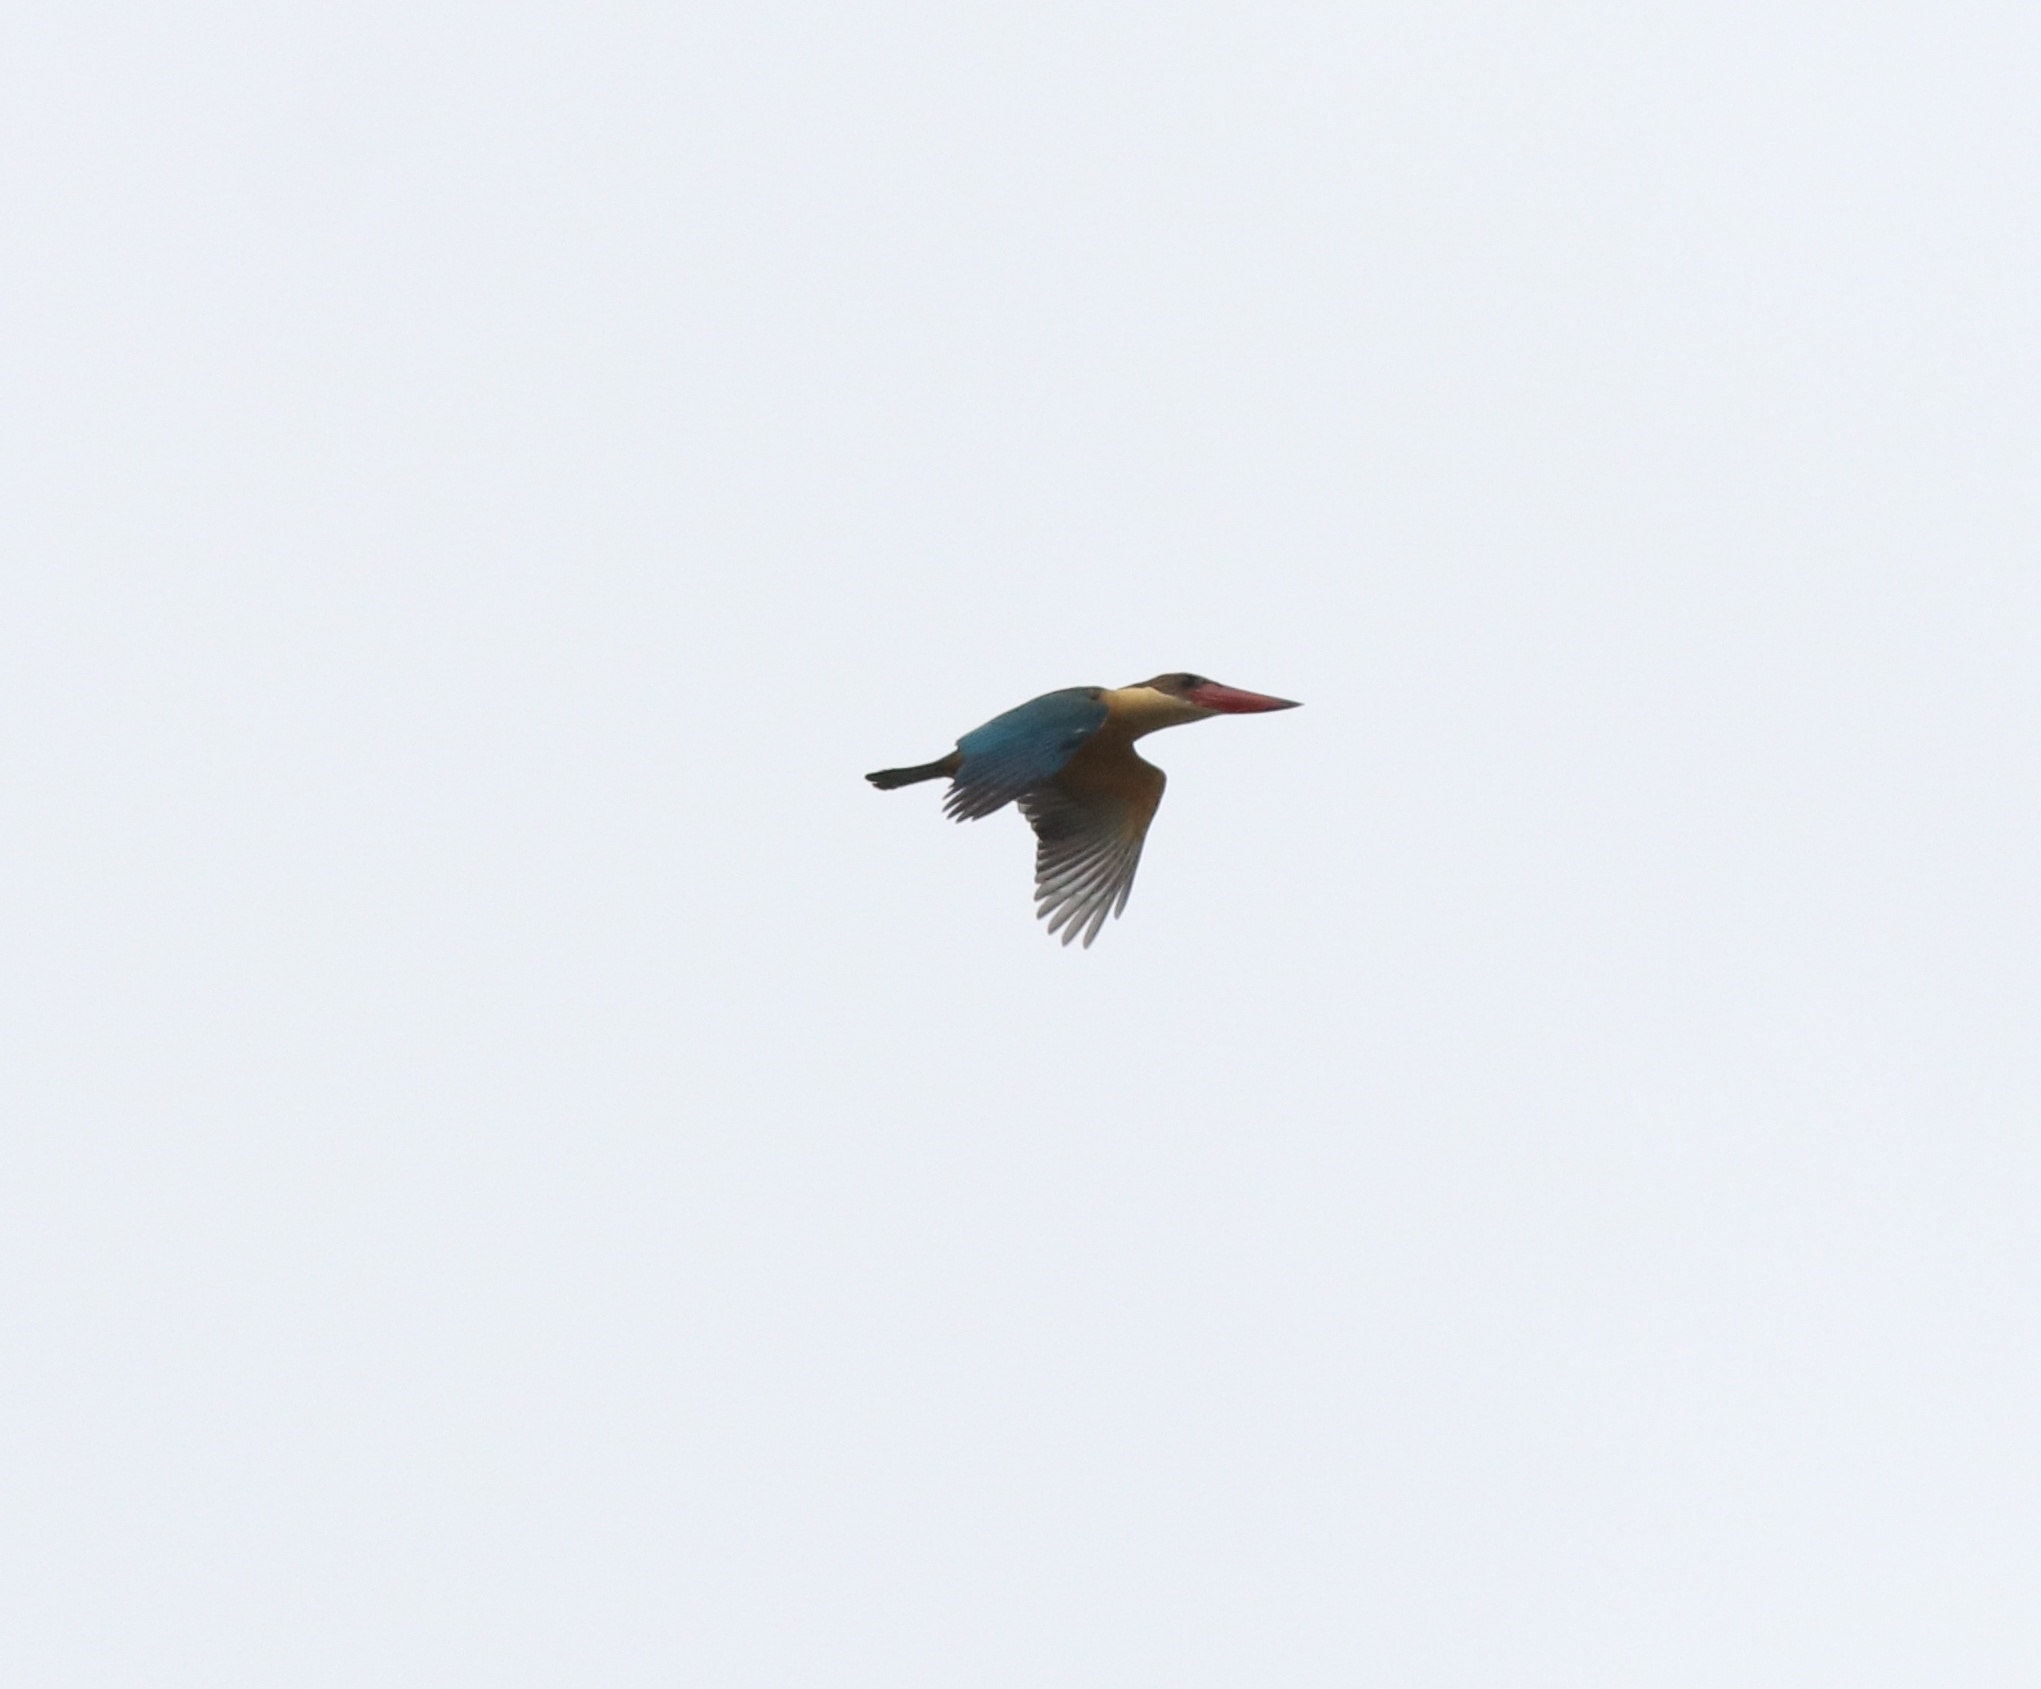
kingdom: Animalia
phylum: Chordata
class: Aves
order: Coraciiformes
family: Alcedinidae
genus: Pelargopsis
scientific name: Pelargopsis capensis
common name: Stork-billed kingfisher
